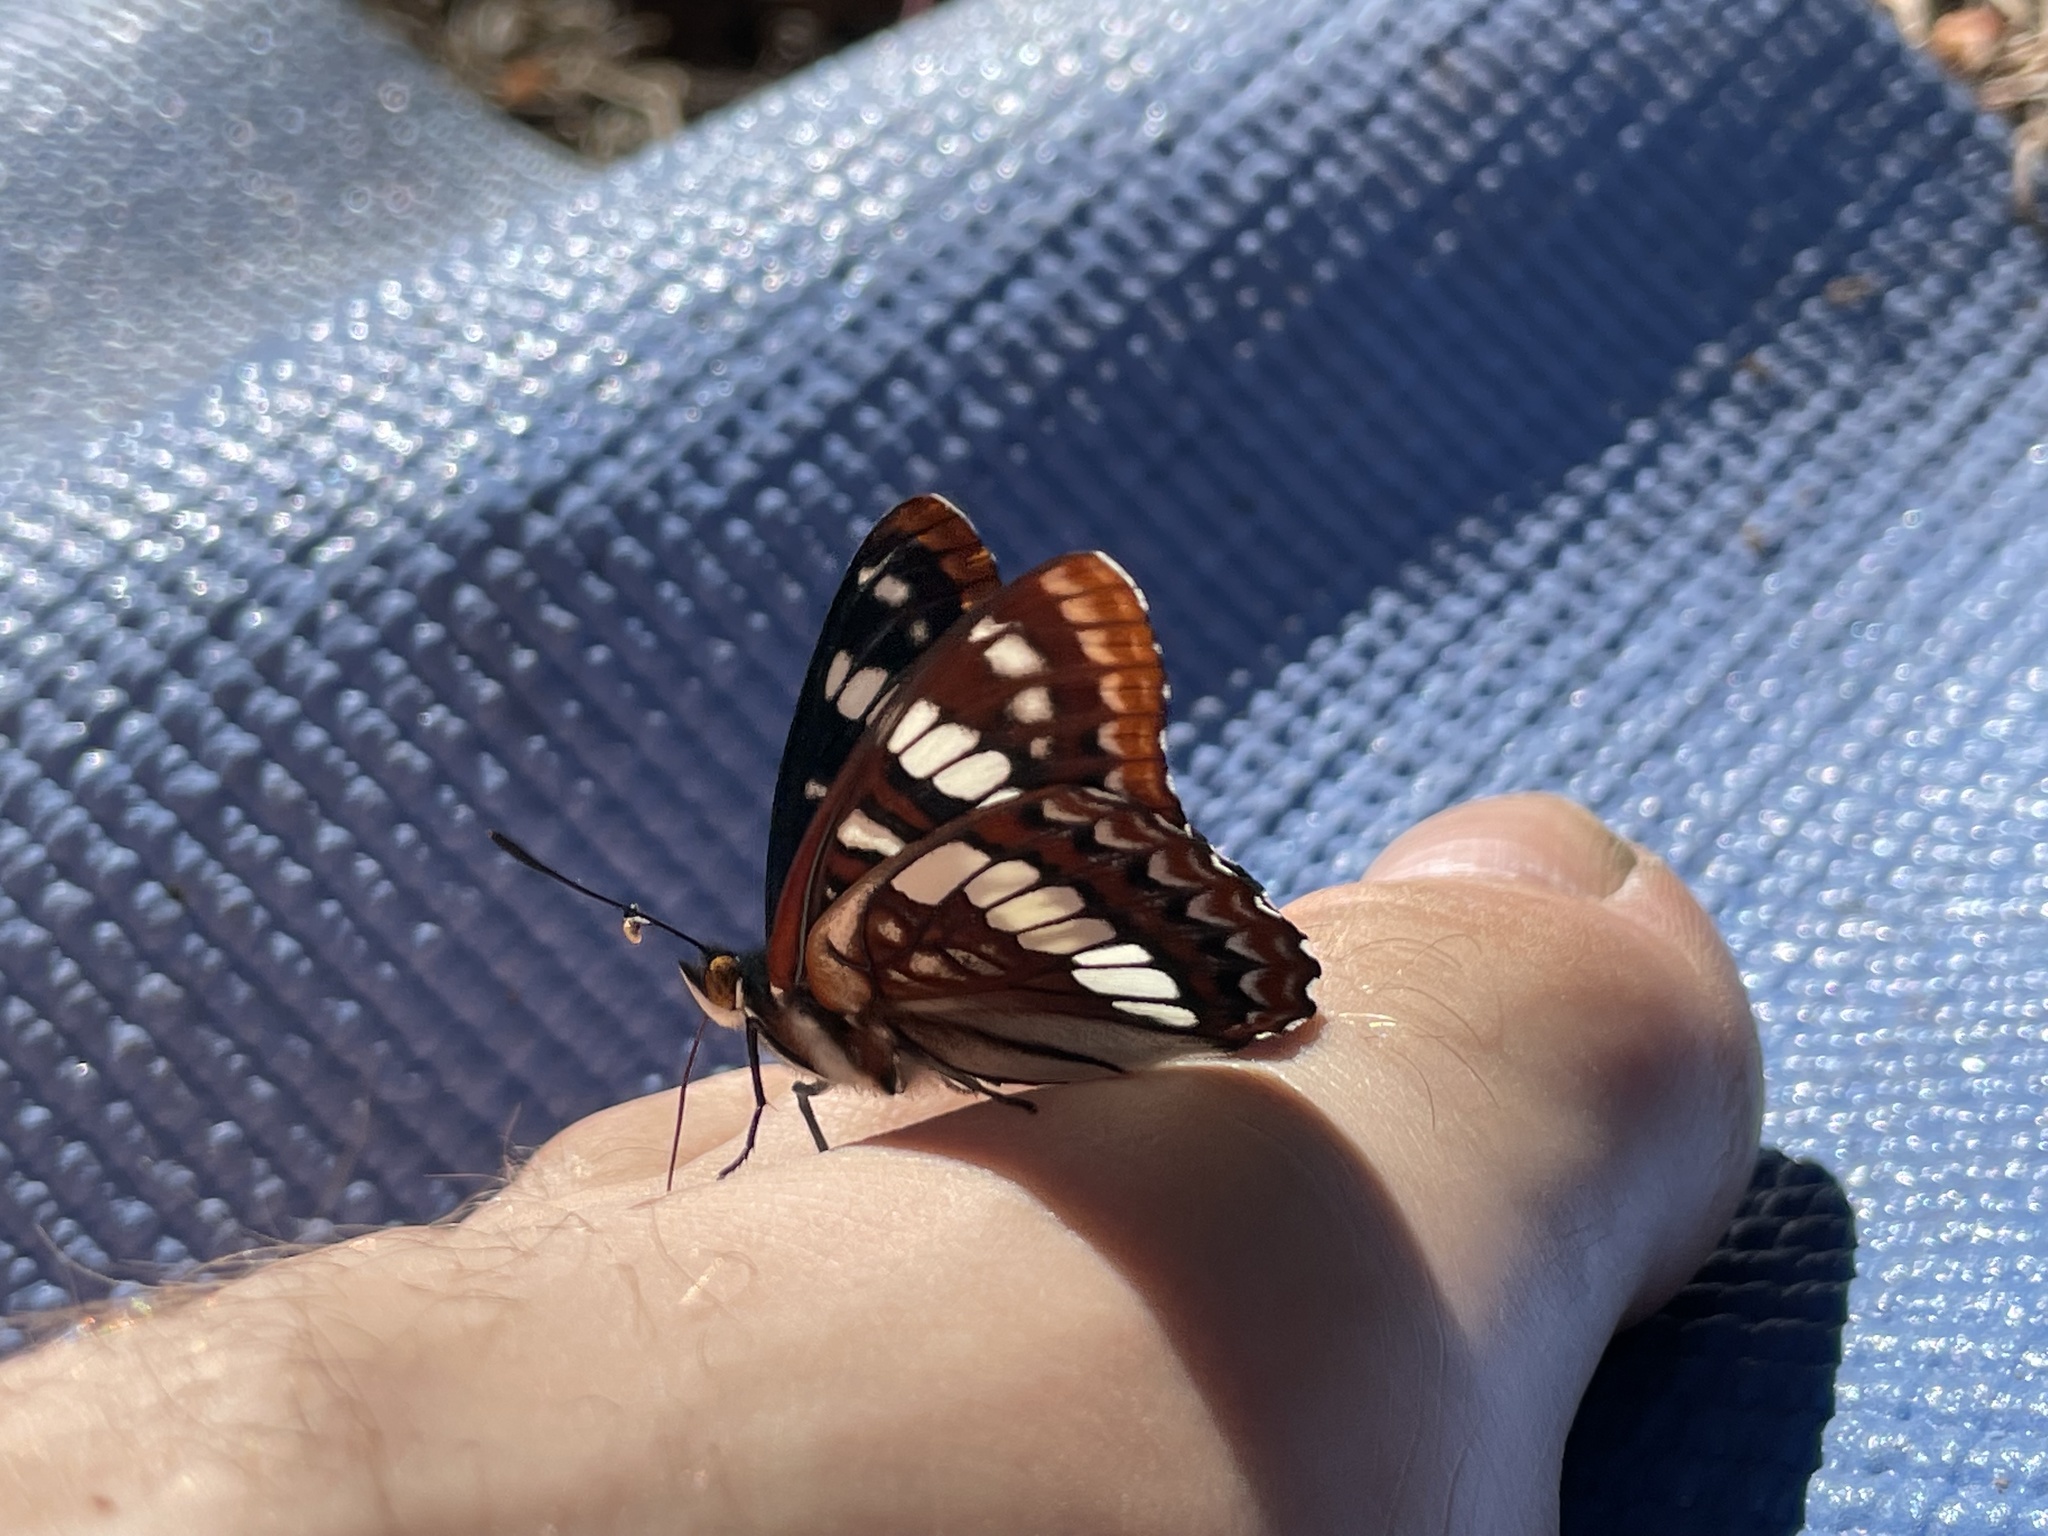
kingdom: Animalia
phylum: Arthropoda
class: Insecta
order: Lepidoptera
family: Nymphalidae
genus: Limenitis
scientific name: Limenitis lorquini
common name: Lorquin's admiral
